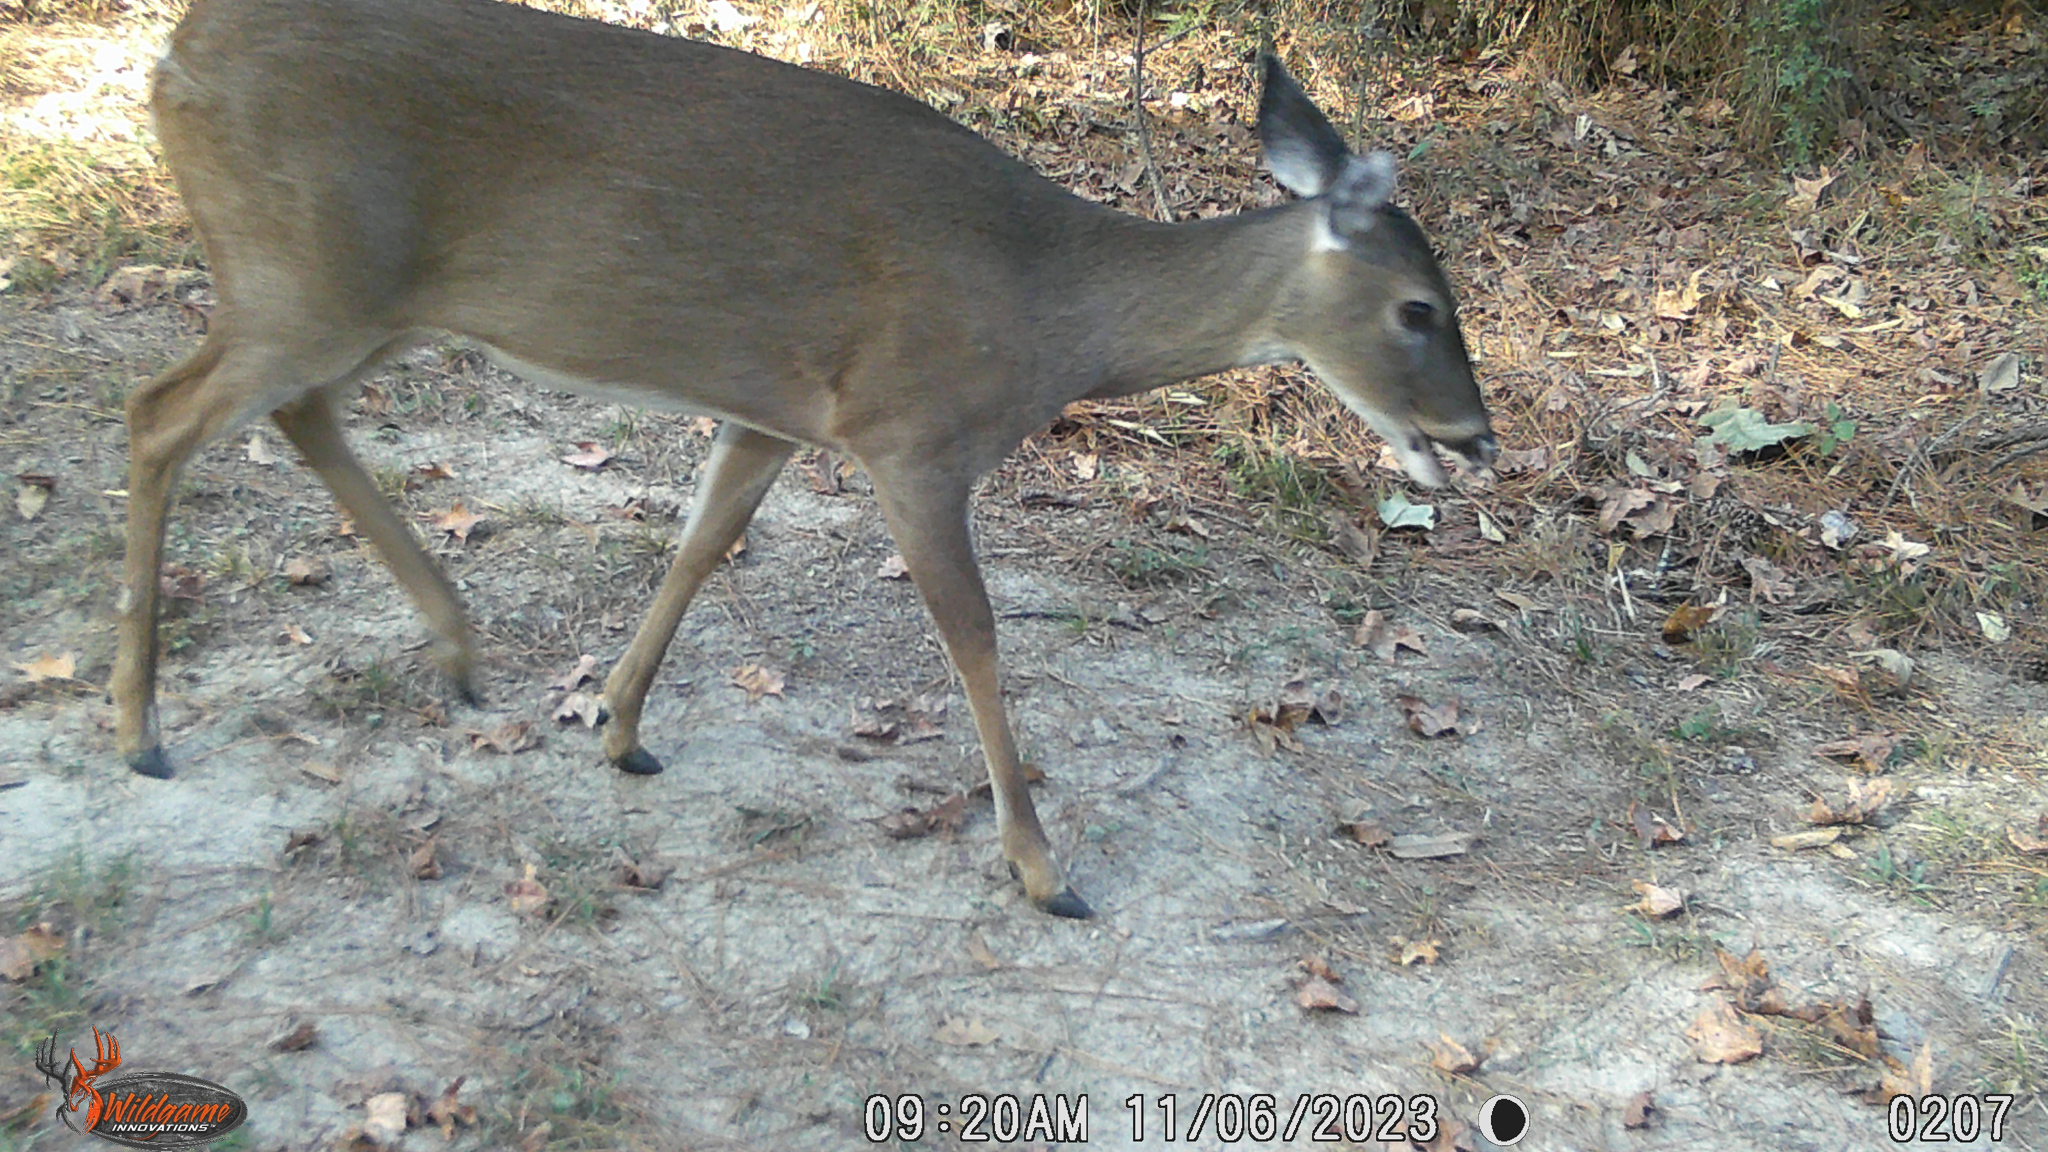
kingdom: Animalia
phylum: Chordata
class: Mammalia
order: Artiodactyla
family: Cervidae
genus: Odocoileus
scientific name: Odocoileus virginianus
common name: White-tailed deer
